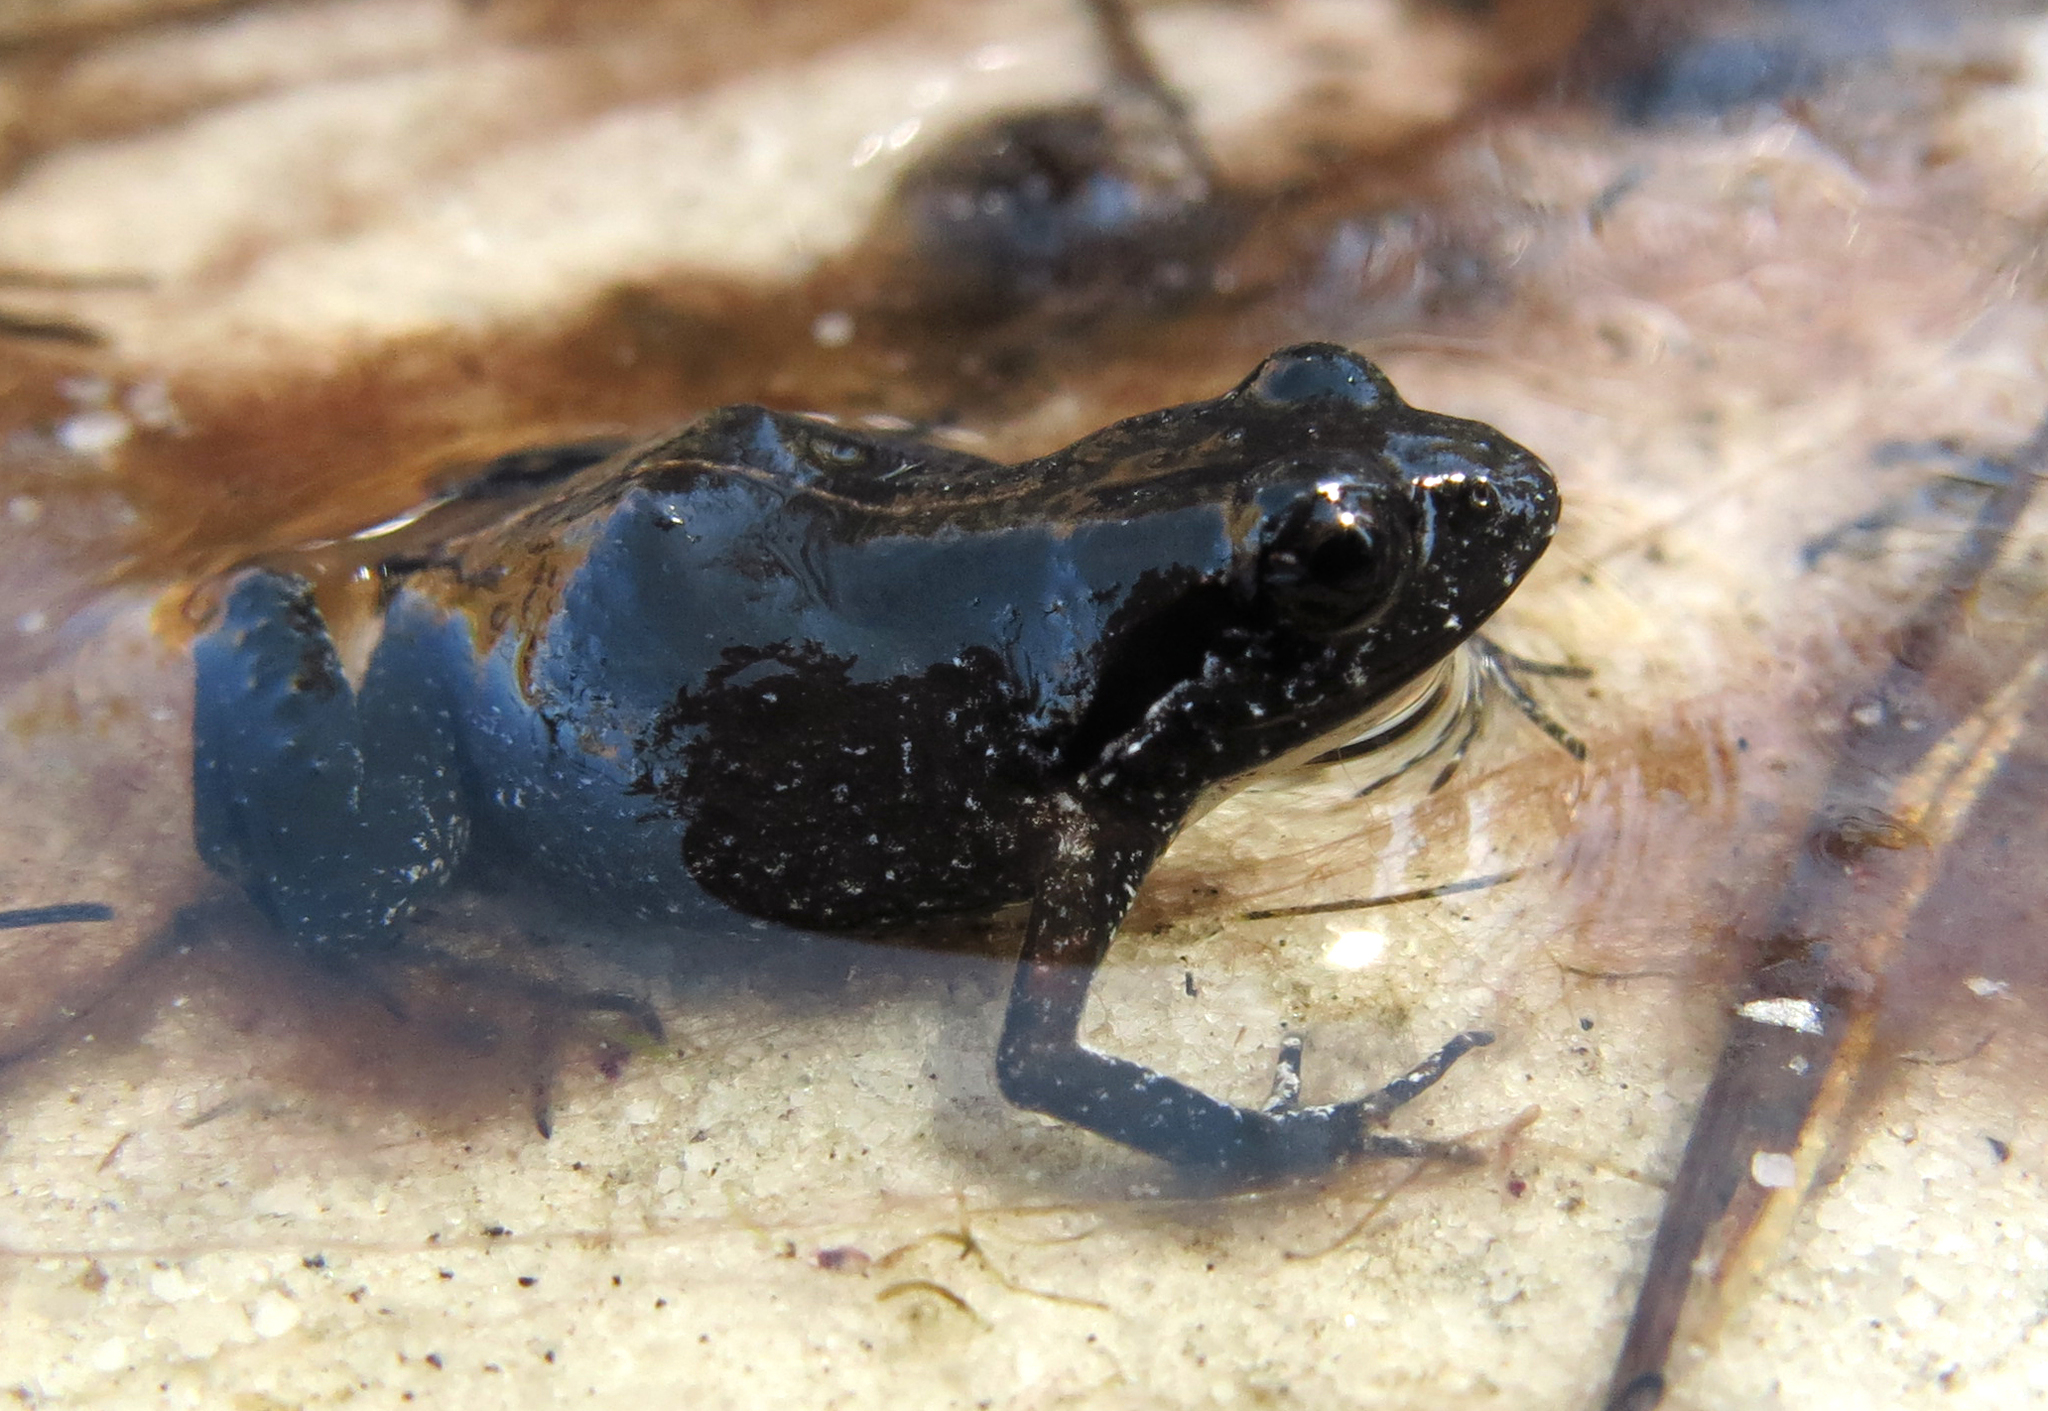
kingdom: Animalia
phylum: Chordata
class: Amphibia
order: Anura
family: Pyxicephalidae
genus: Arthroleptella
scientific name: Arthroleptella lightfooti
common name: Cape peninsula chirping frog
